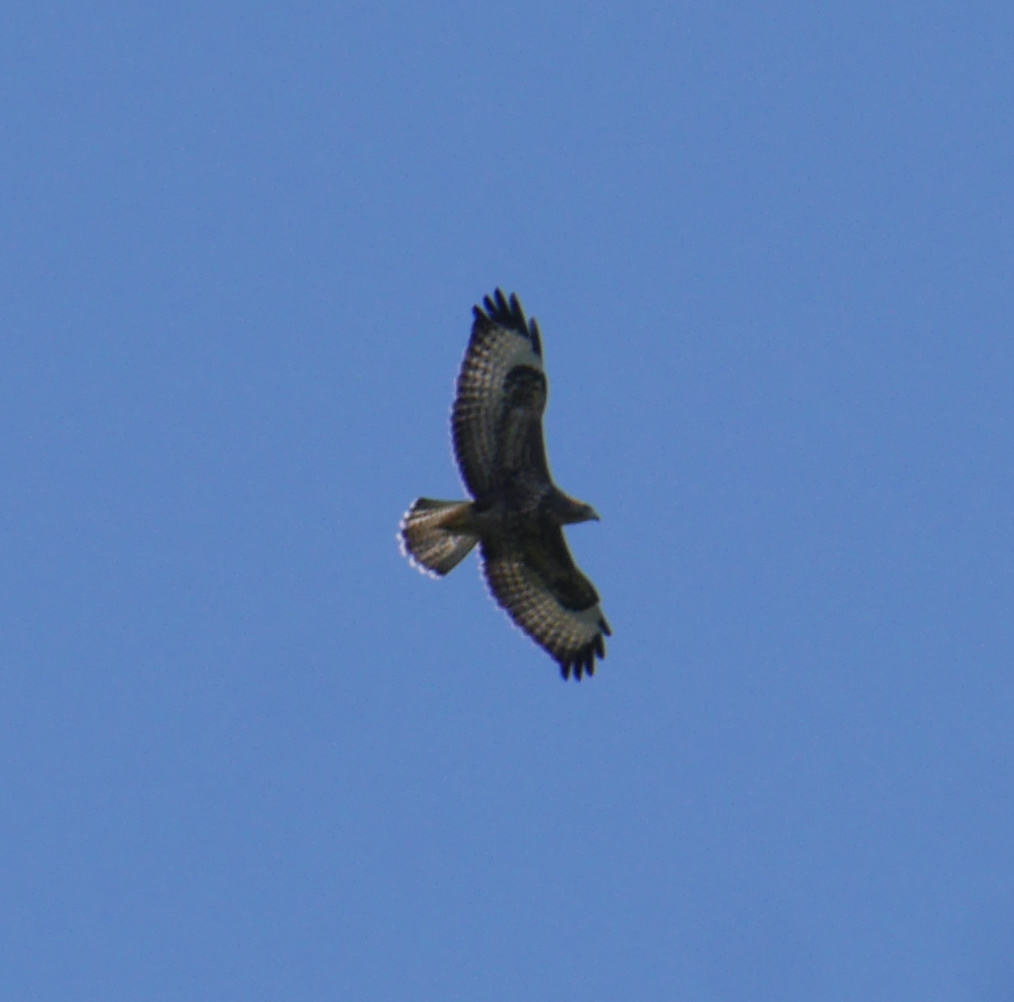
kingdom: Animalia
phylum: Chordata
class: Aves
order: Accipitriformes
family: Accipitridae
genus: Buteo
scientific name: Buteo buteo
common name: Common buzzard
